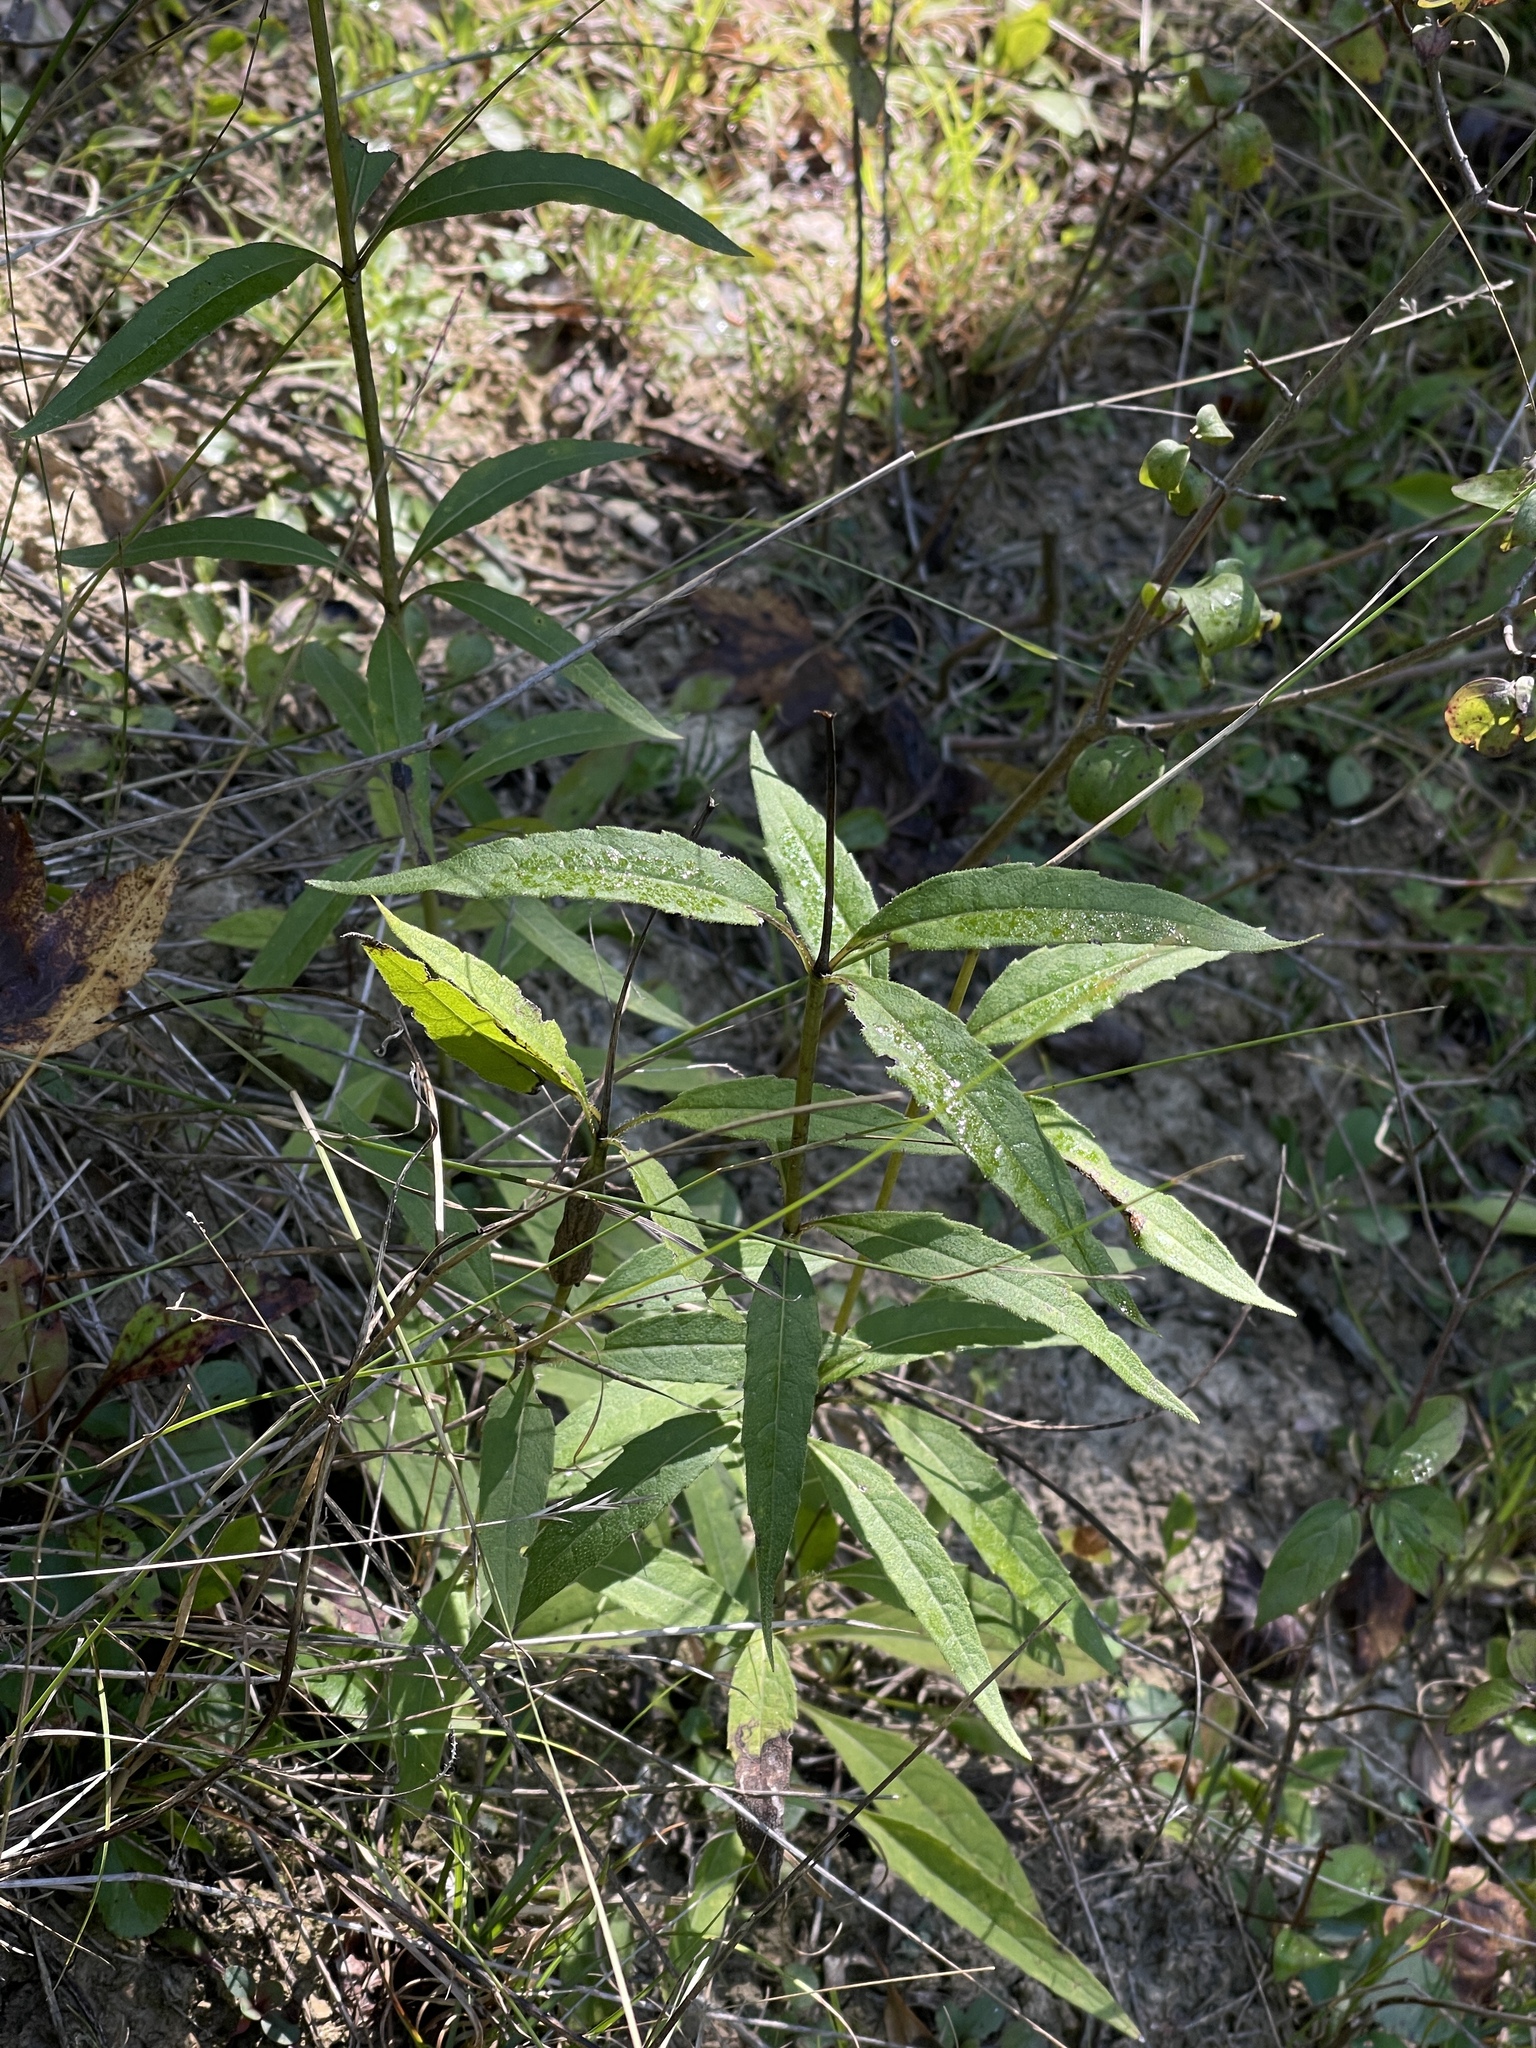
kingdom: Plantae
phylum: Tracheophyta
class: Magnoliopsida
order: Asterales
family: Asteraceae
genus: Silphium
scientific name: Silphium asteriscus
